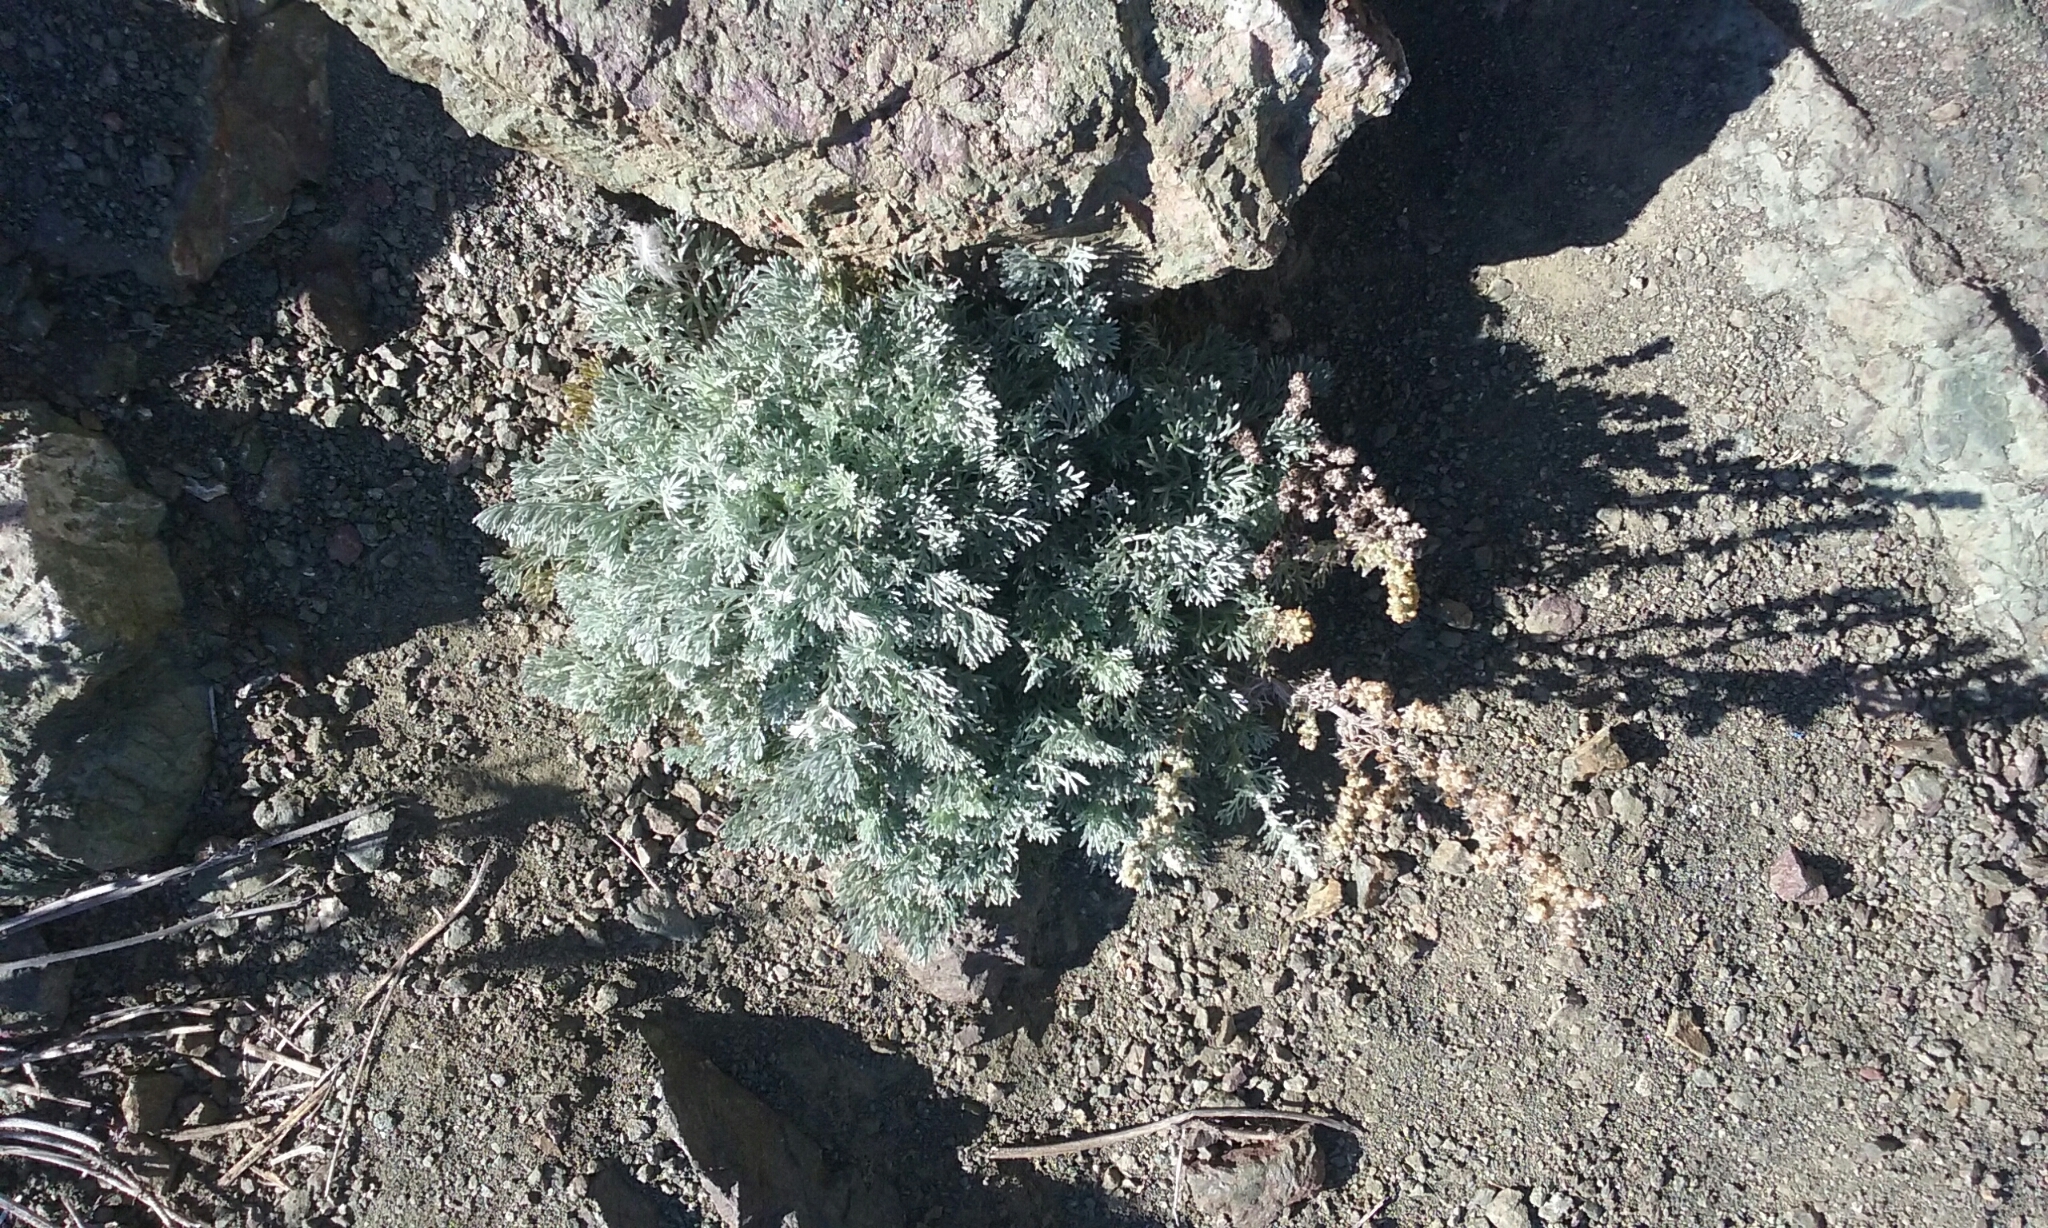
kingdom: Plantae
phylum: Tracheophyta
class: Magnoliopsida
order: Asterales
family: Asteraceae
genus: Artemisia
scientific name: Artemisia pycnocephala
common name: Coastal sagewort
